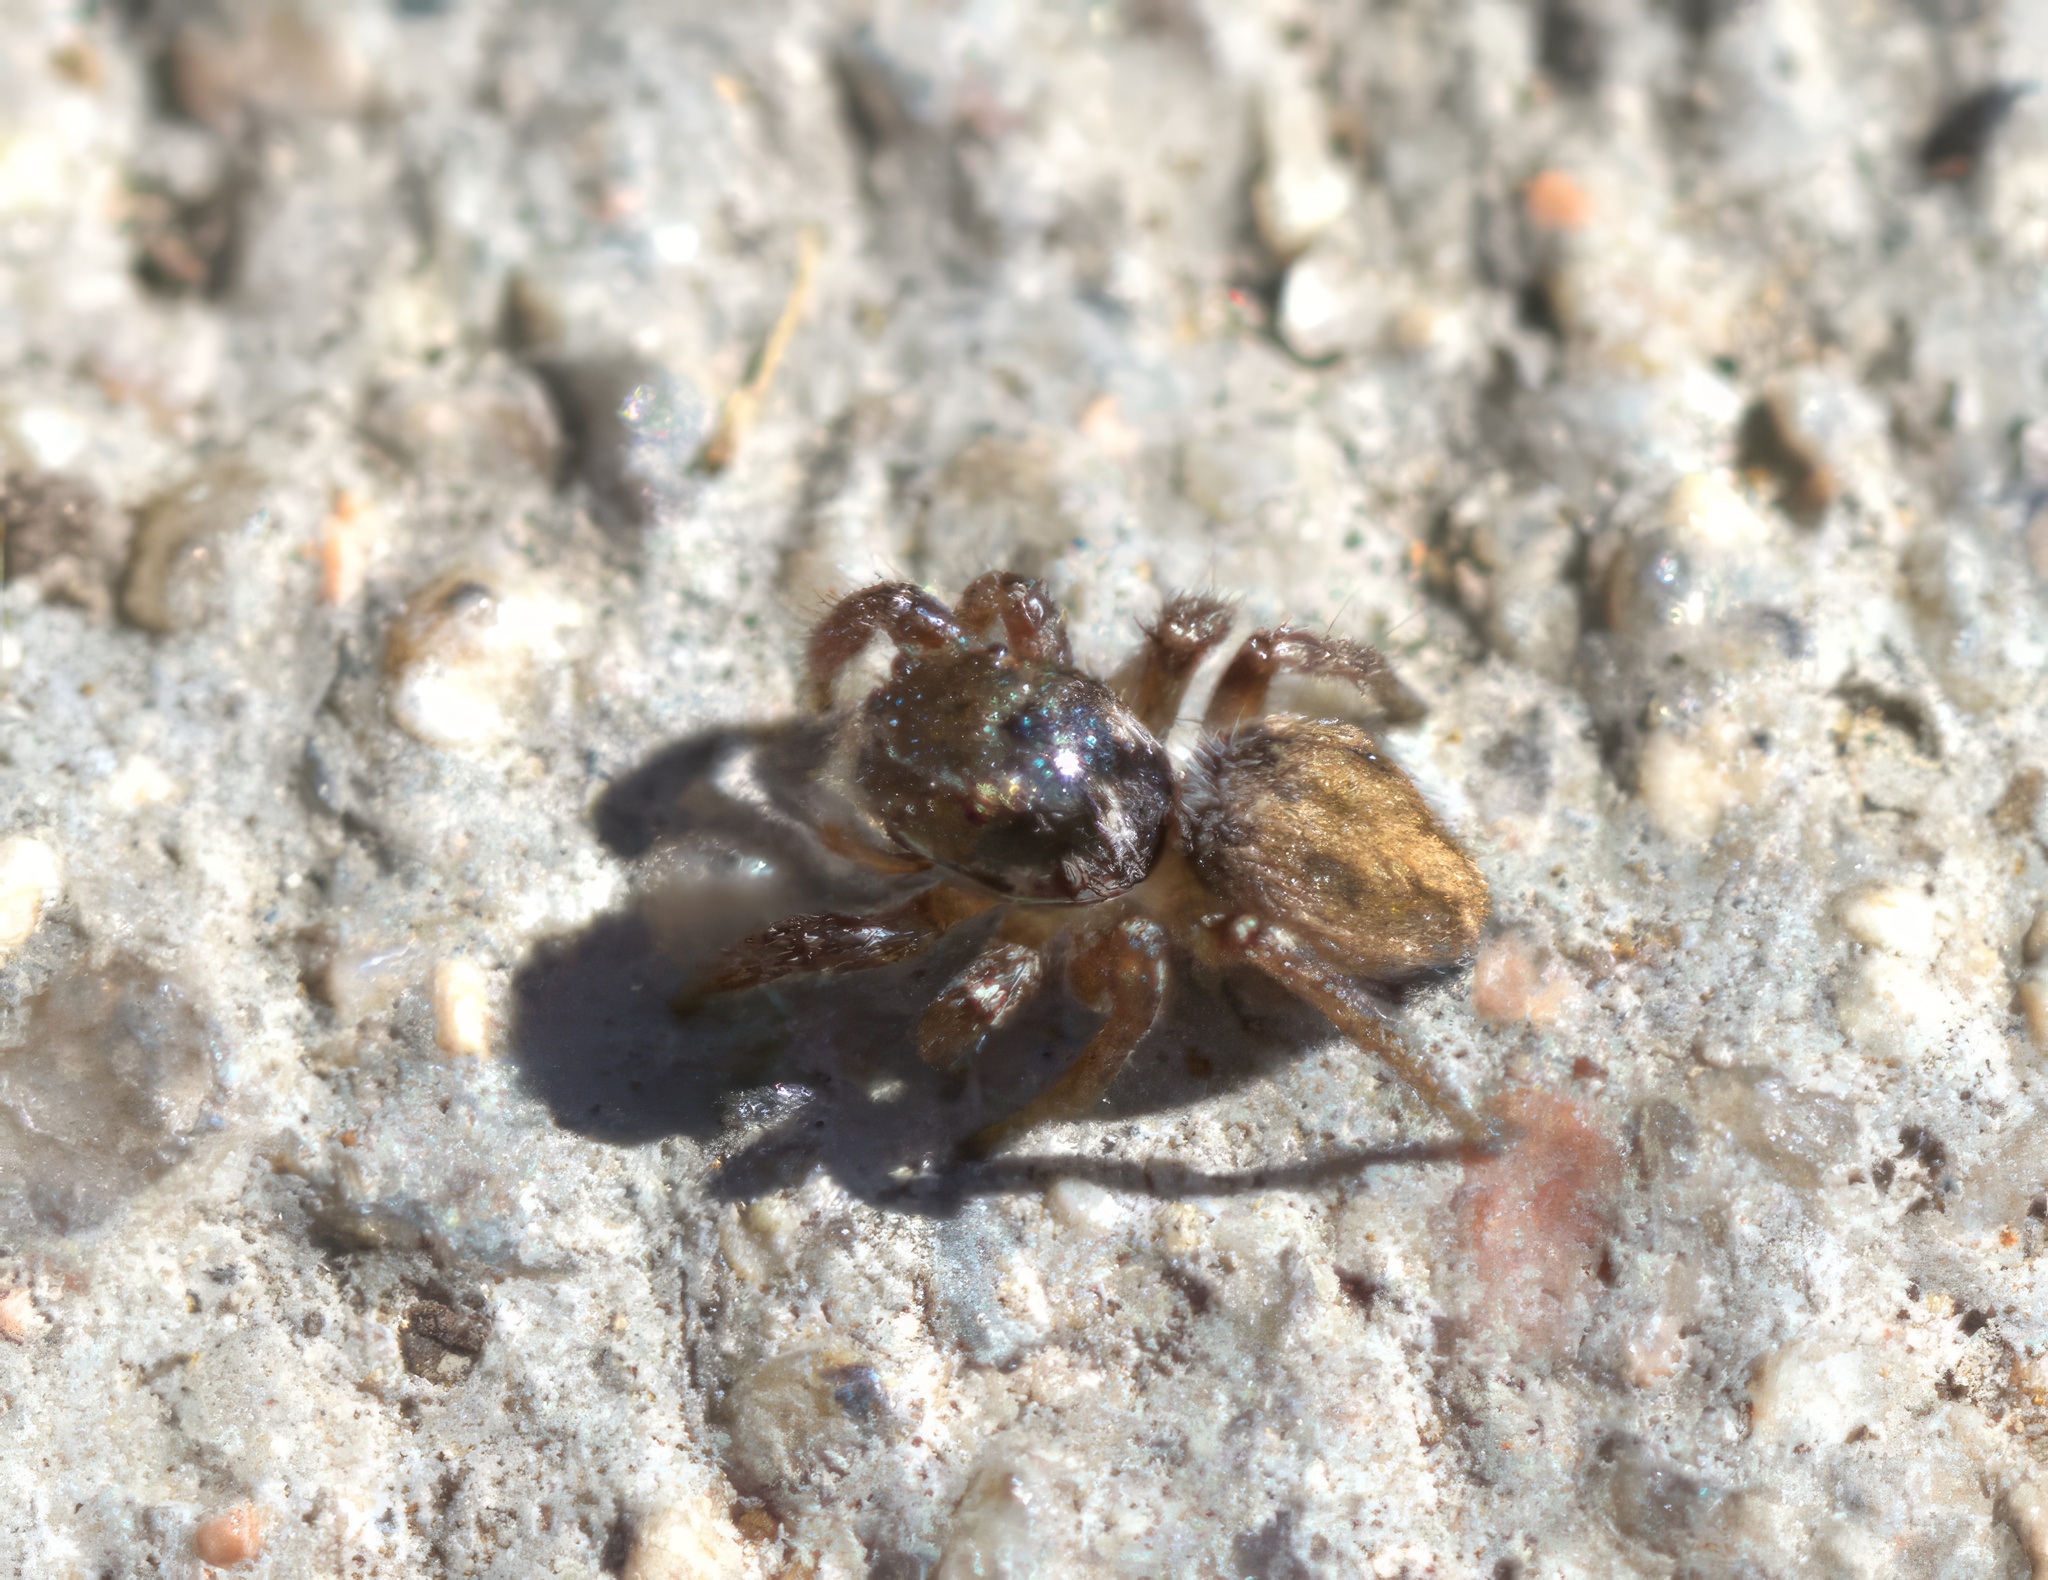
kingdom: Animalia
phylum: Arthropoda
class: Arachnida
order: Araneae
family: Salticidae
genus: Habronattus
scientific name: Habronattus pyrrithrix
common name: Jumping spider
